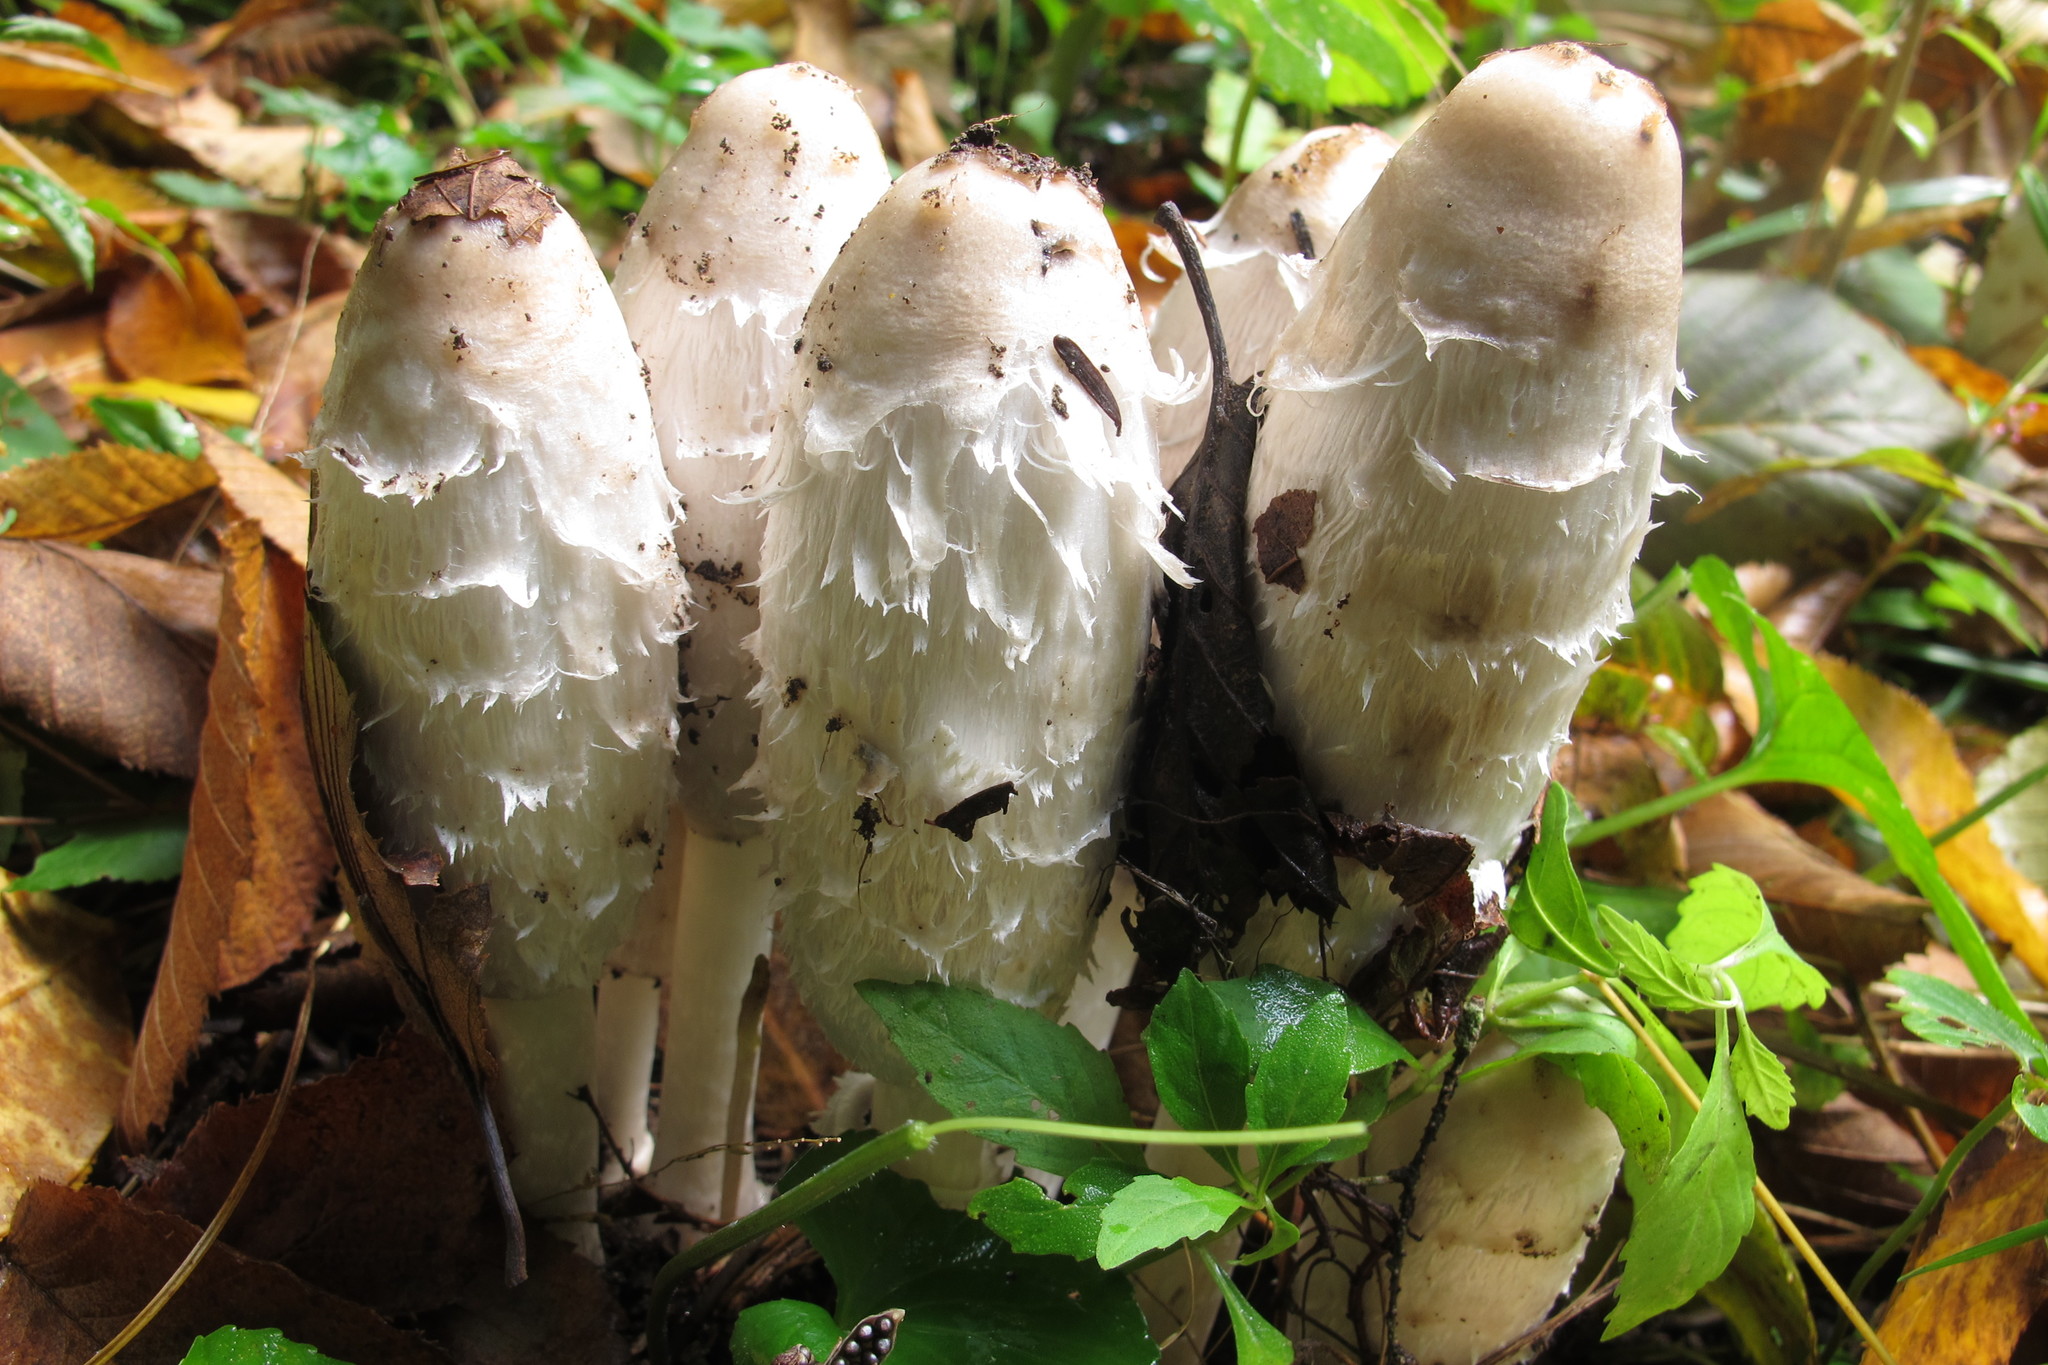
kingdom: Fungi
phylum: Basidiomycota
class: Agaricomycetes
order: Agaricales
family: Agaricaceae
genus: Coprinus
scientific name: Coprinus comatus
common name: Lawyer's wig
